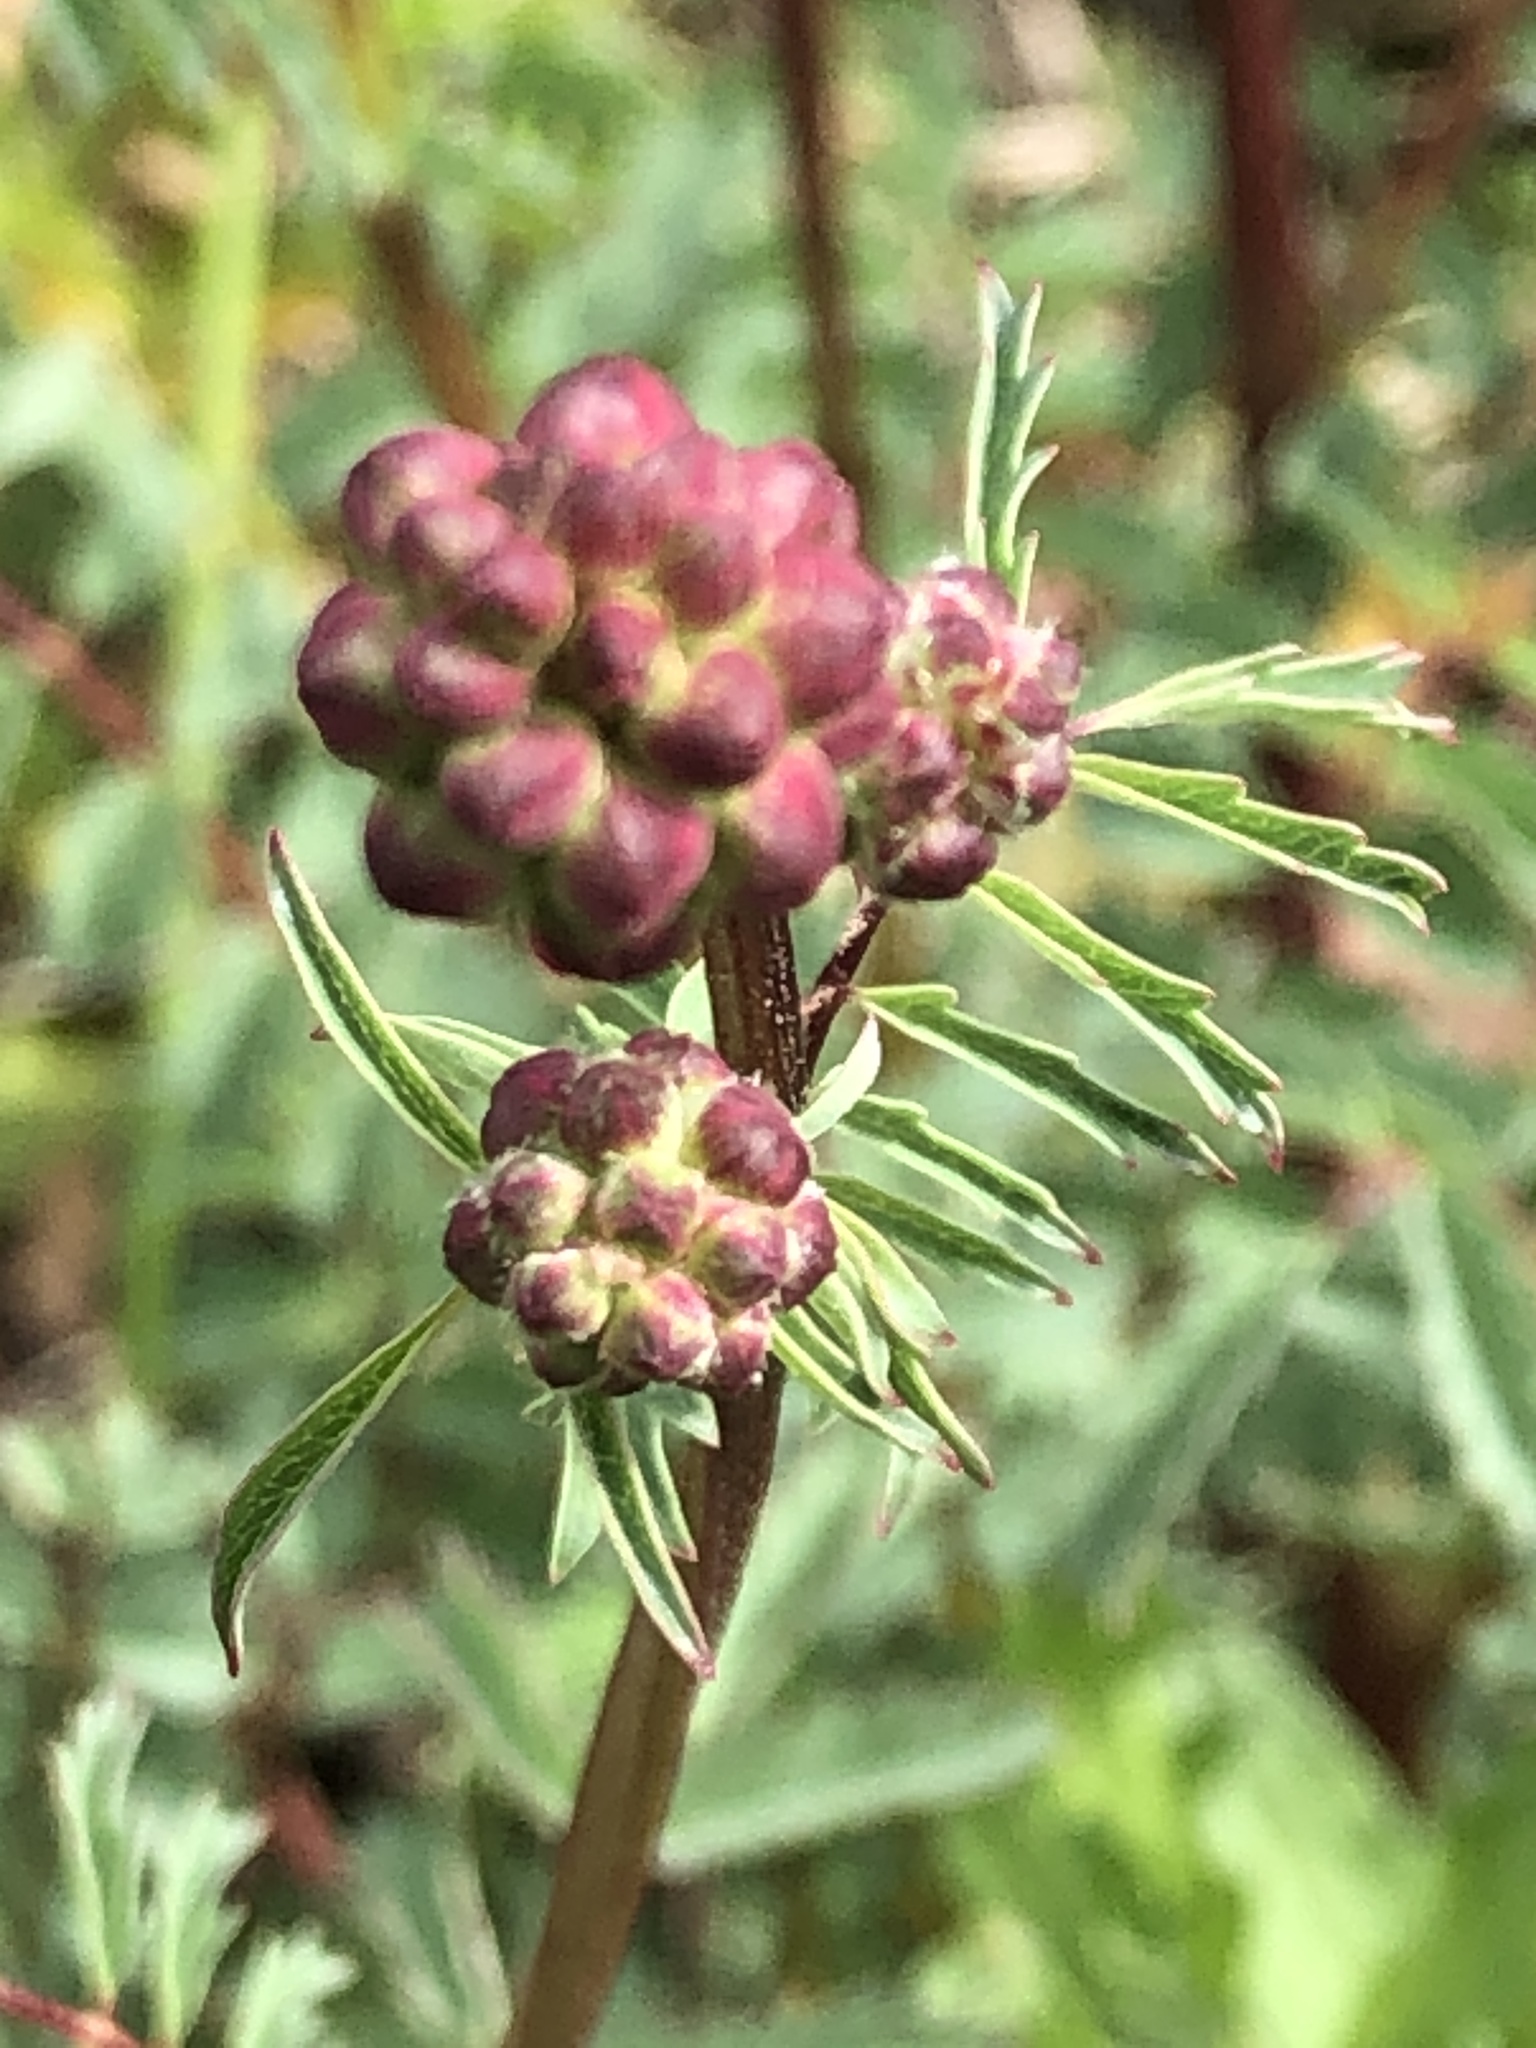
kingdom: Plantae
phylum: Tracheophyta
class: Magnoliopsida
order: Rosales
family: Rosaceae
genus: Poterium
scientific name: Poterium sanguisorba
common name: Salad burnet
